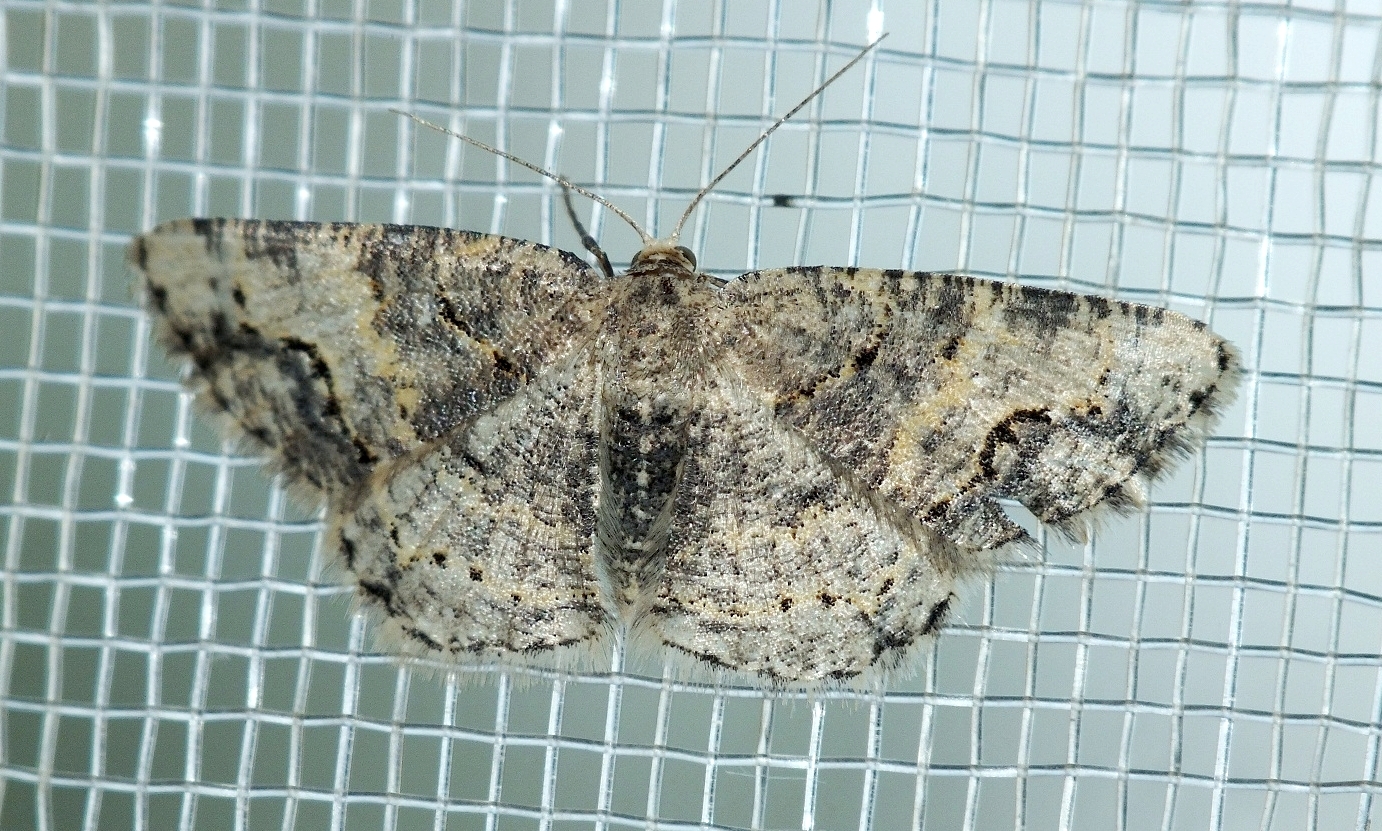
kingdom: Animalia
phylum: Arthropoda
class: Insecta
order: Lepidoptera
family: Geometridae
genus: Stegania
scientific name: Stegania dalmataria
